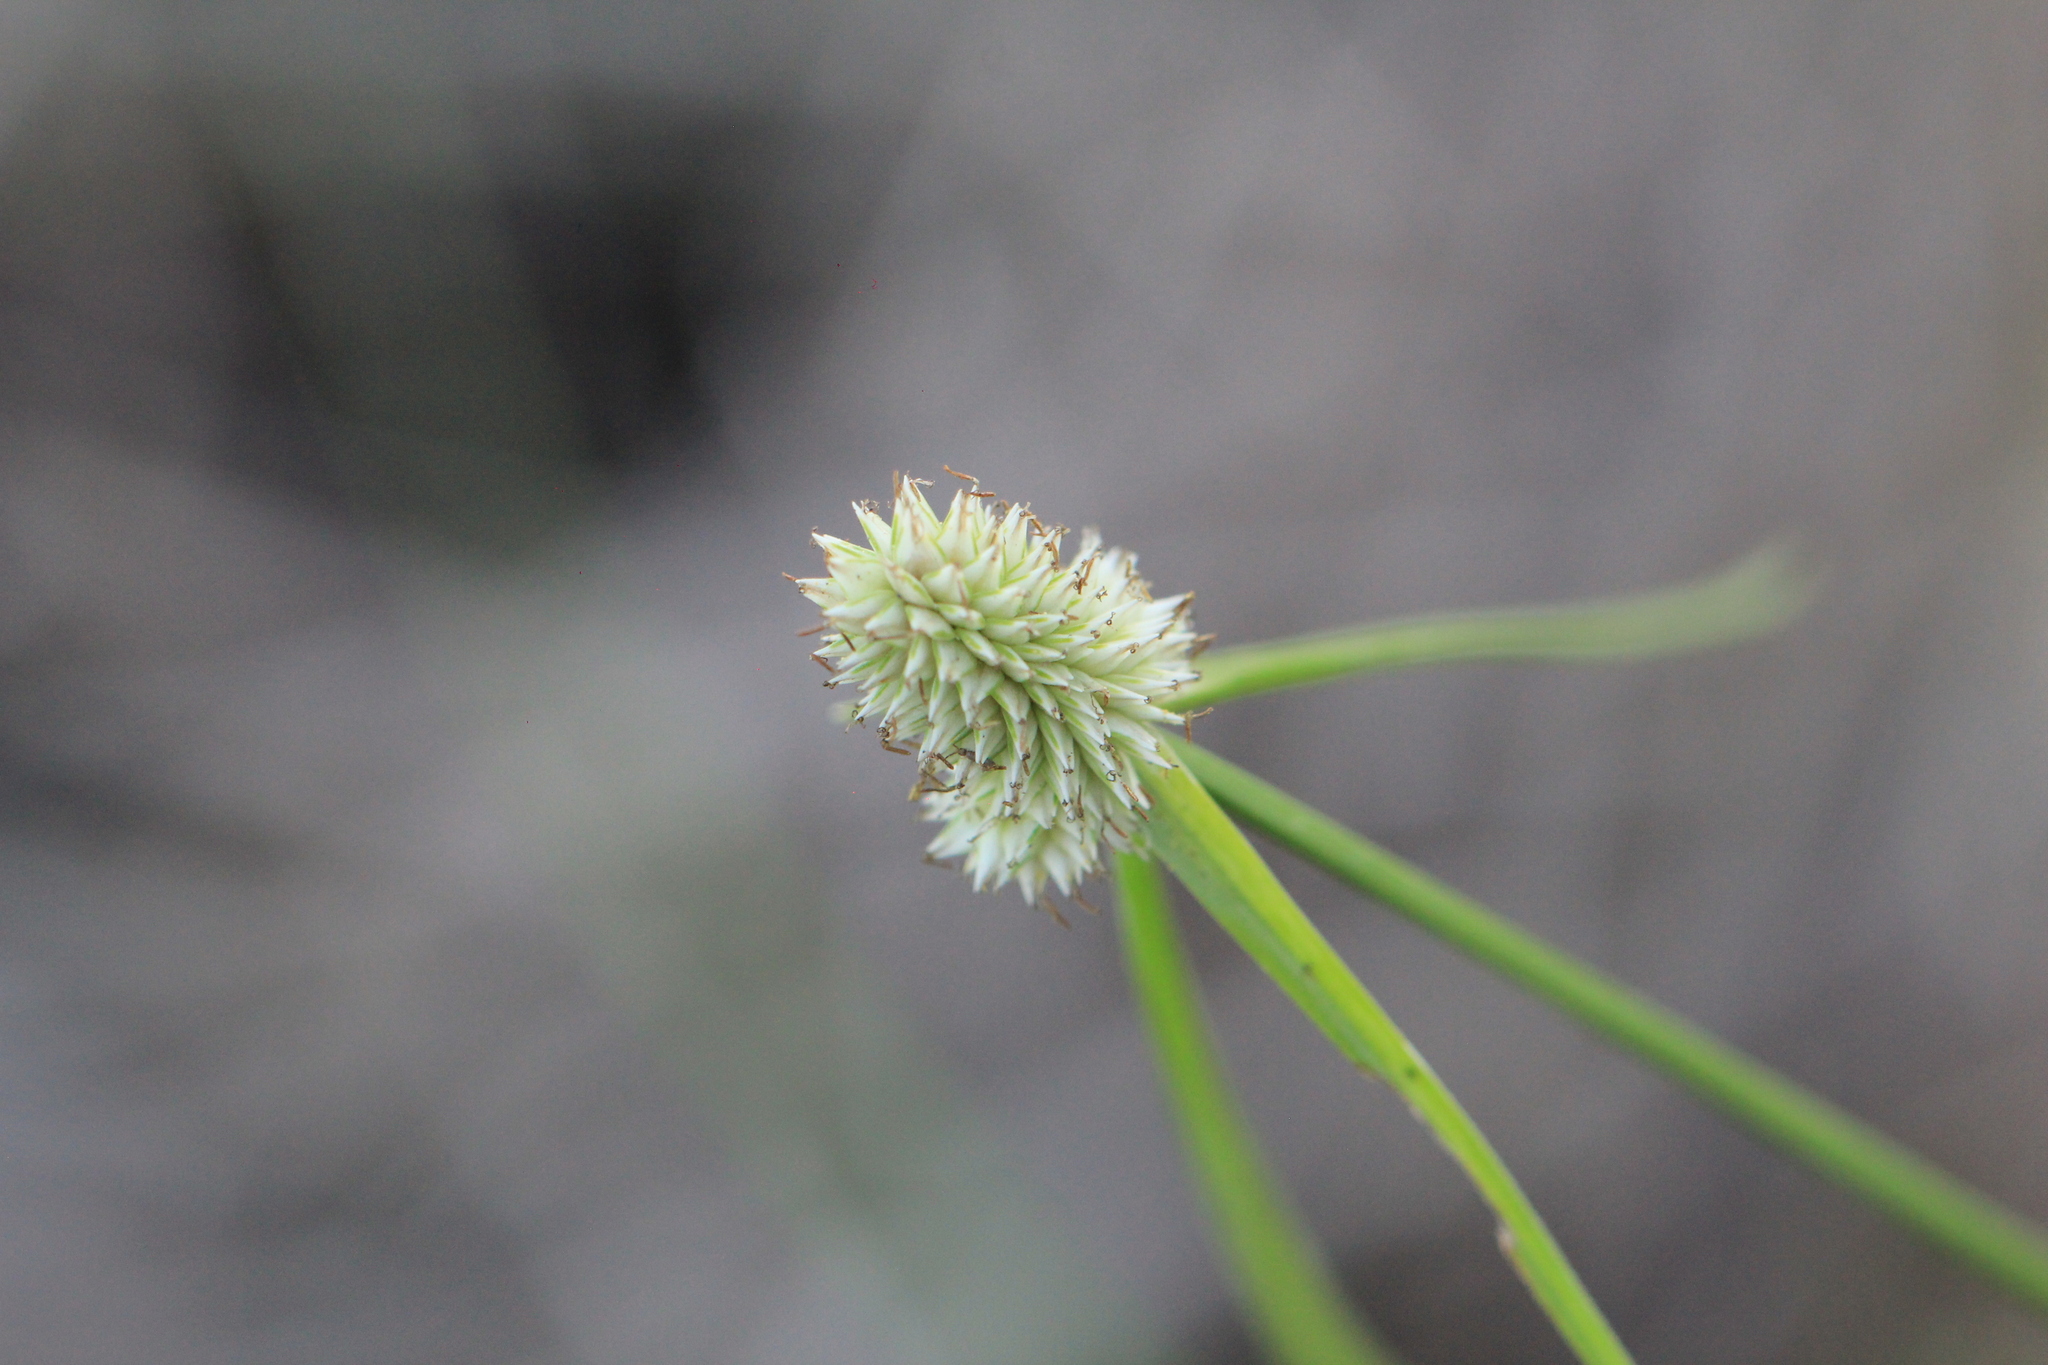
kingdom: Plantae
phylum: Tracheophyta
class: Liliopsida
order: Poales
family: Cyperaceae
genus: Cyperus
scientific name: Cyperus sesquiflorus
